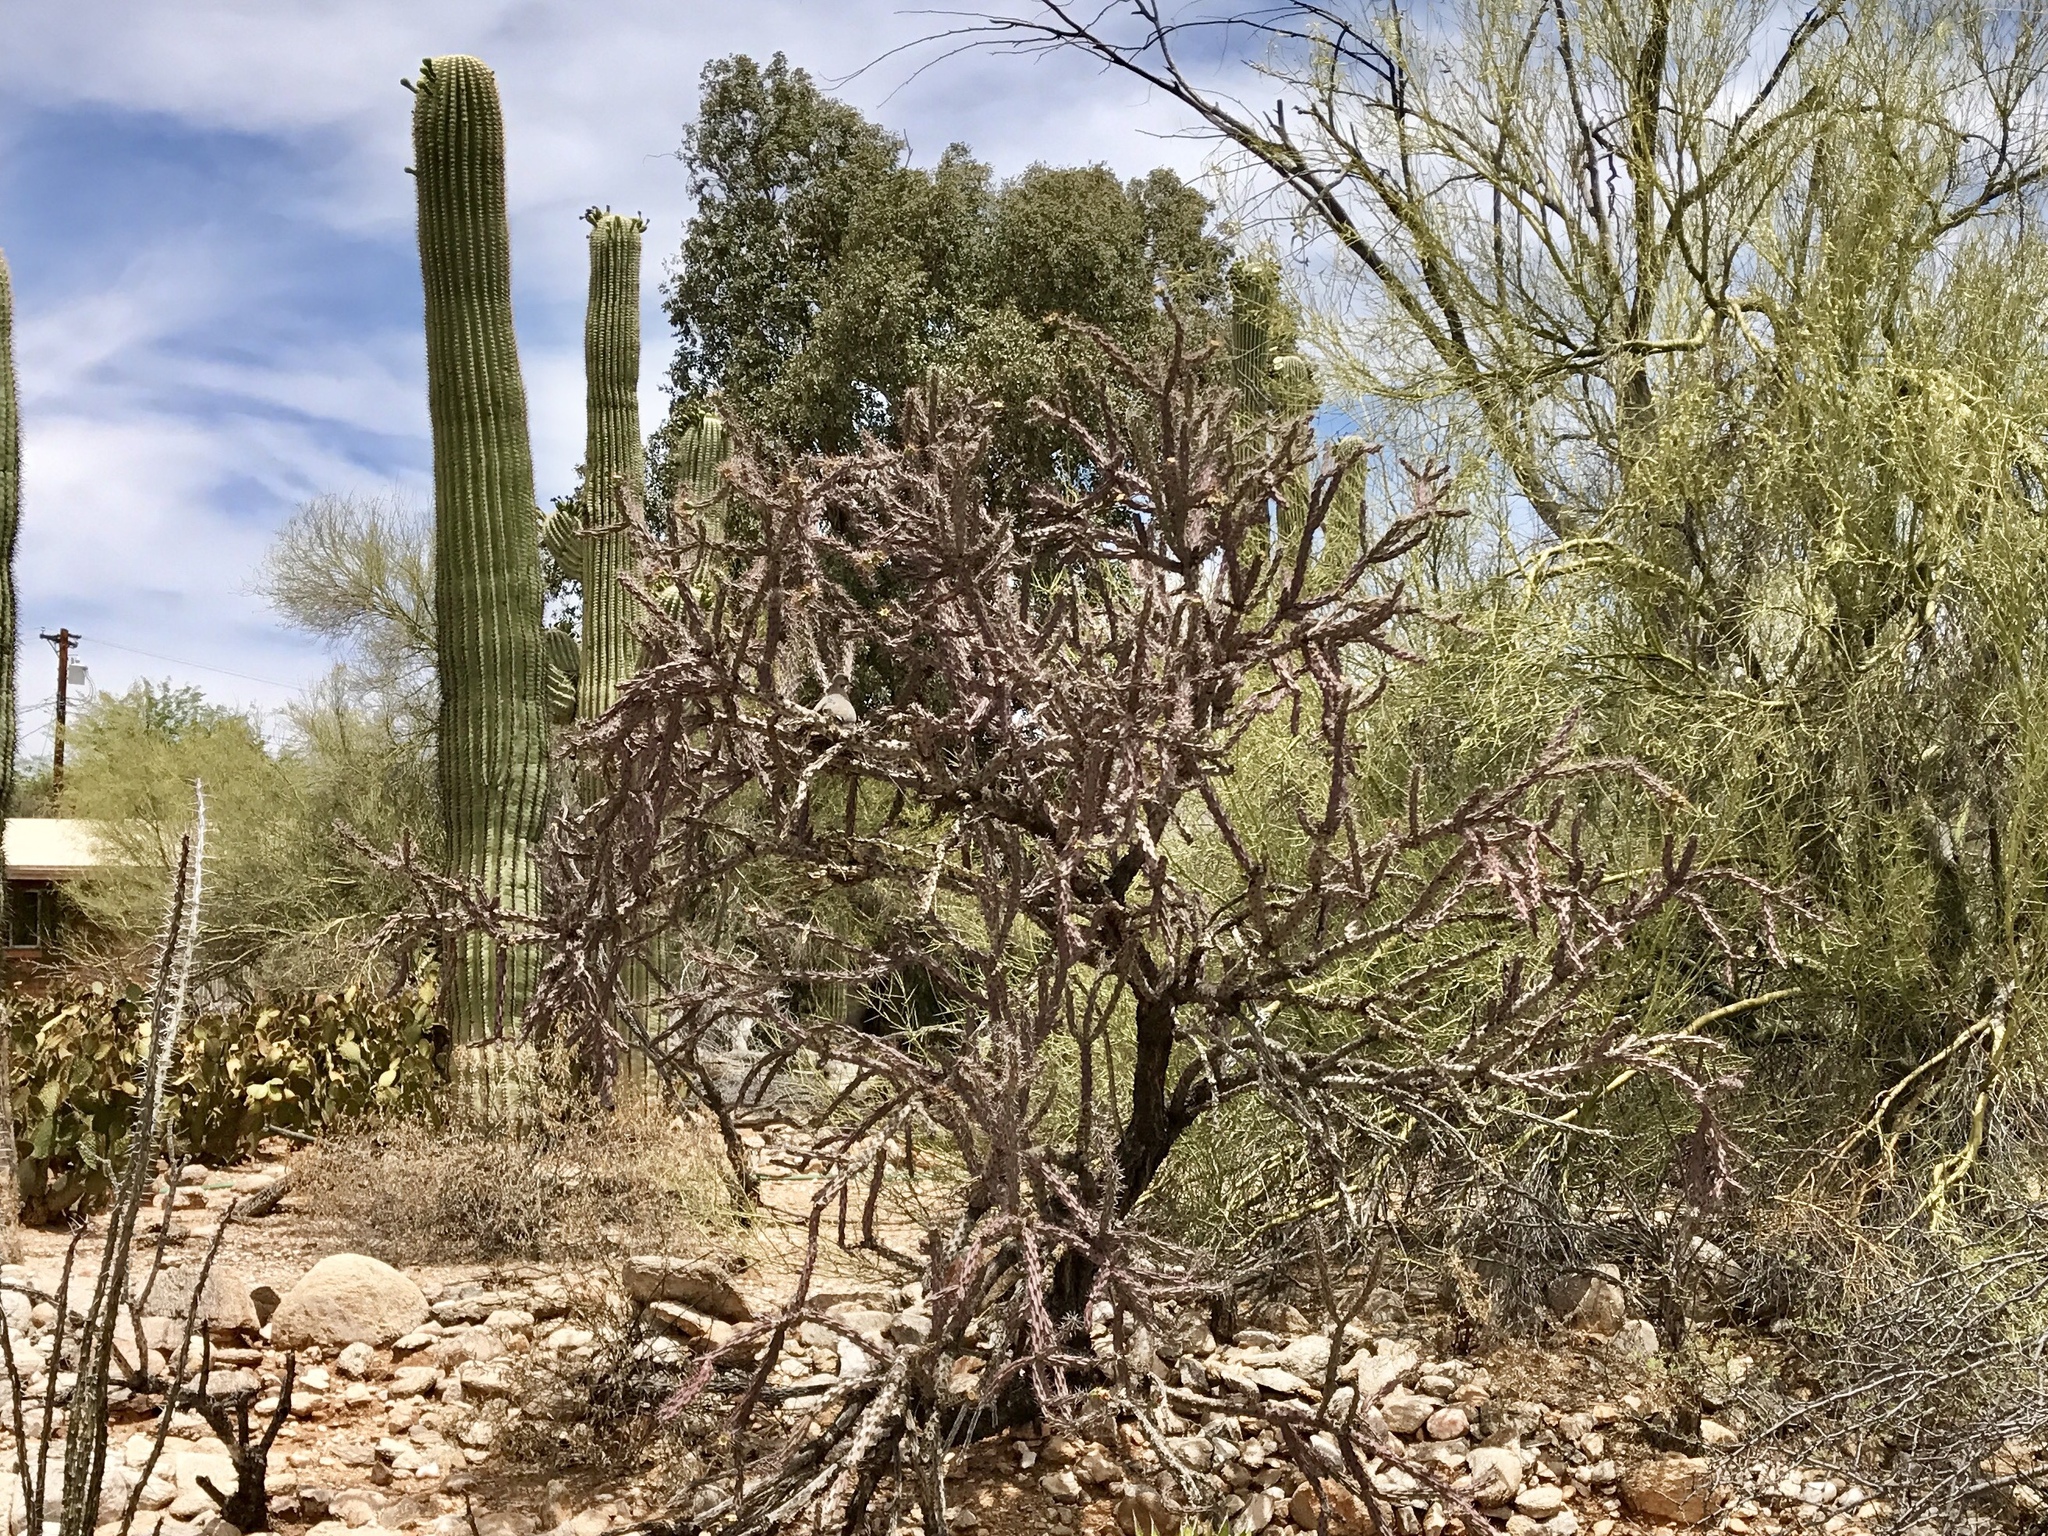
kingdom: Plantae
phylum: Tracheophyta
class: Magnoliopsida
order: Caryophyllales
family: Cactaceae
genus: Cylindropuntia
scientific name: Cylindropuntia thurberi
